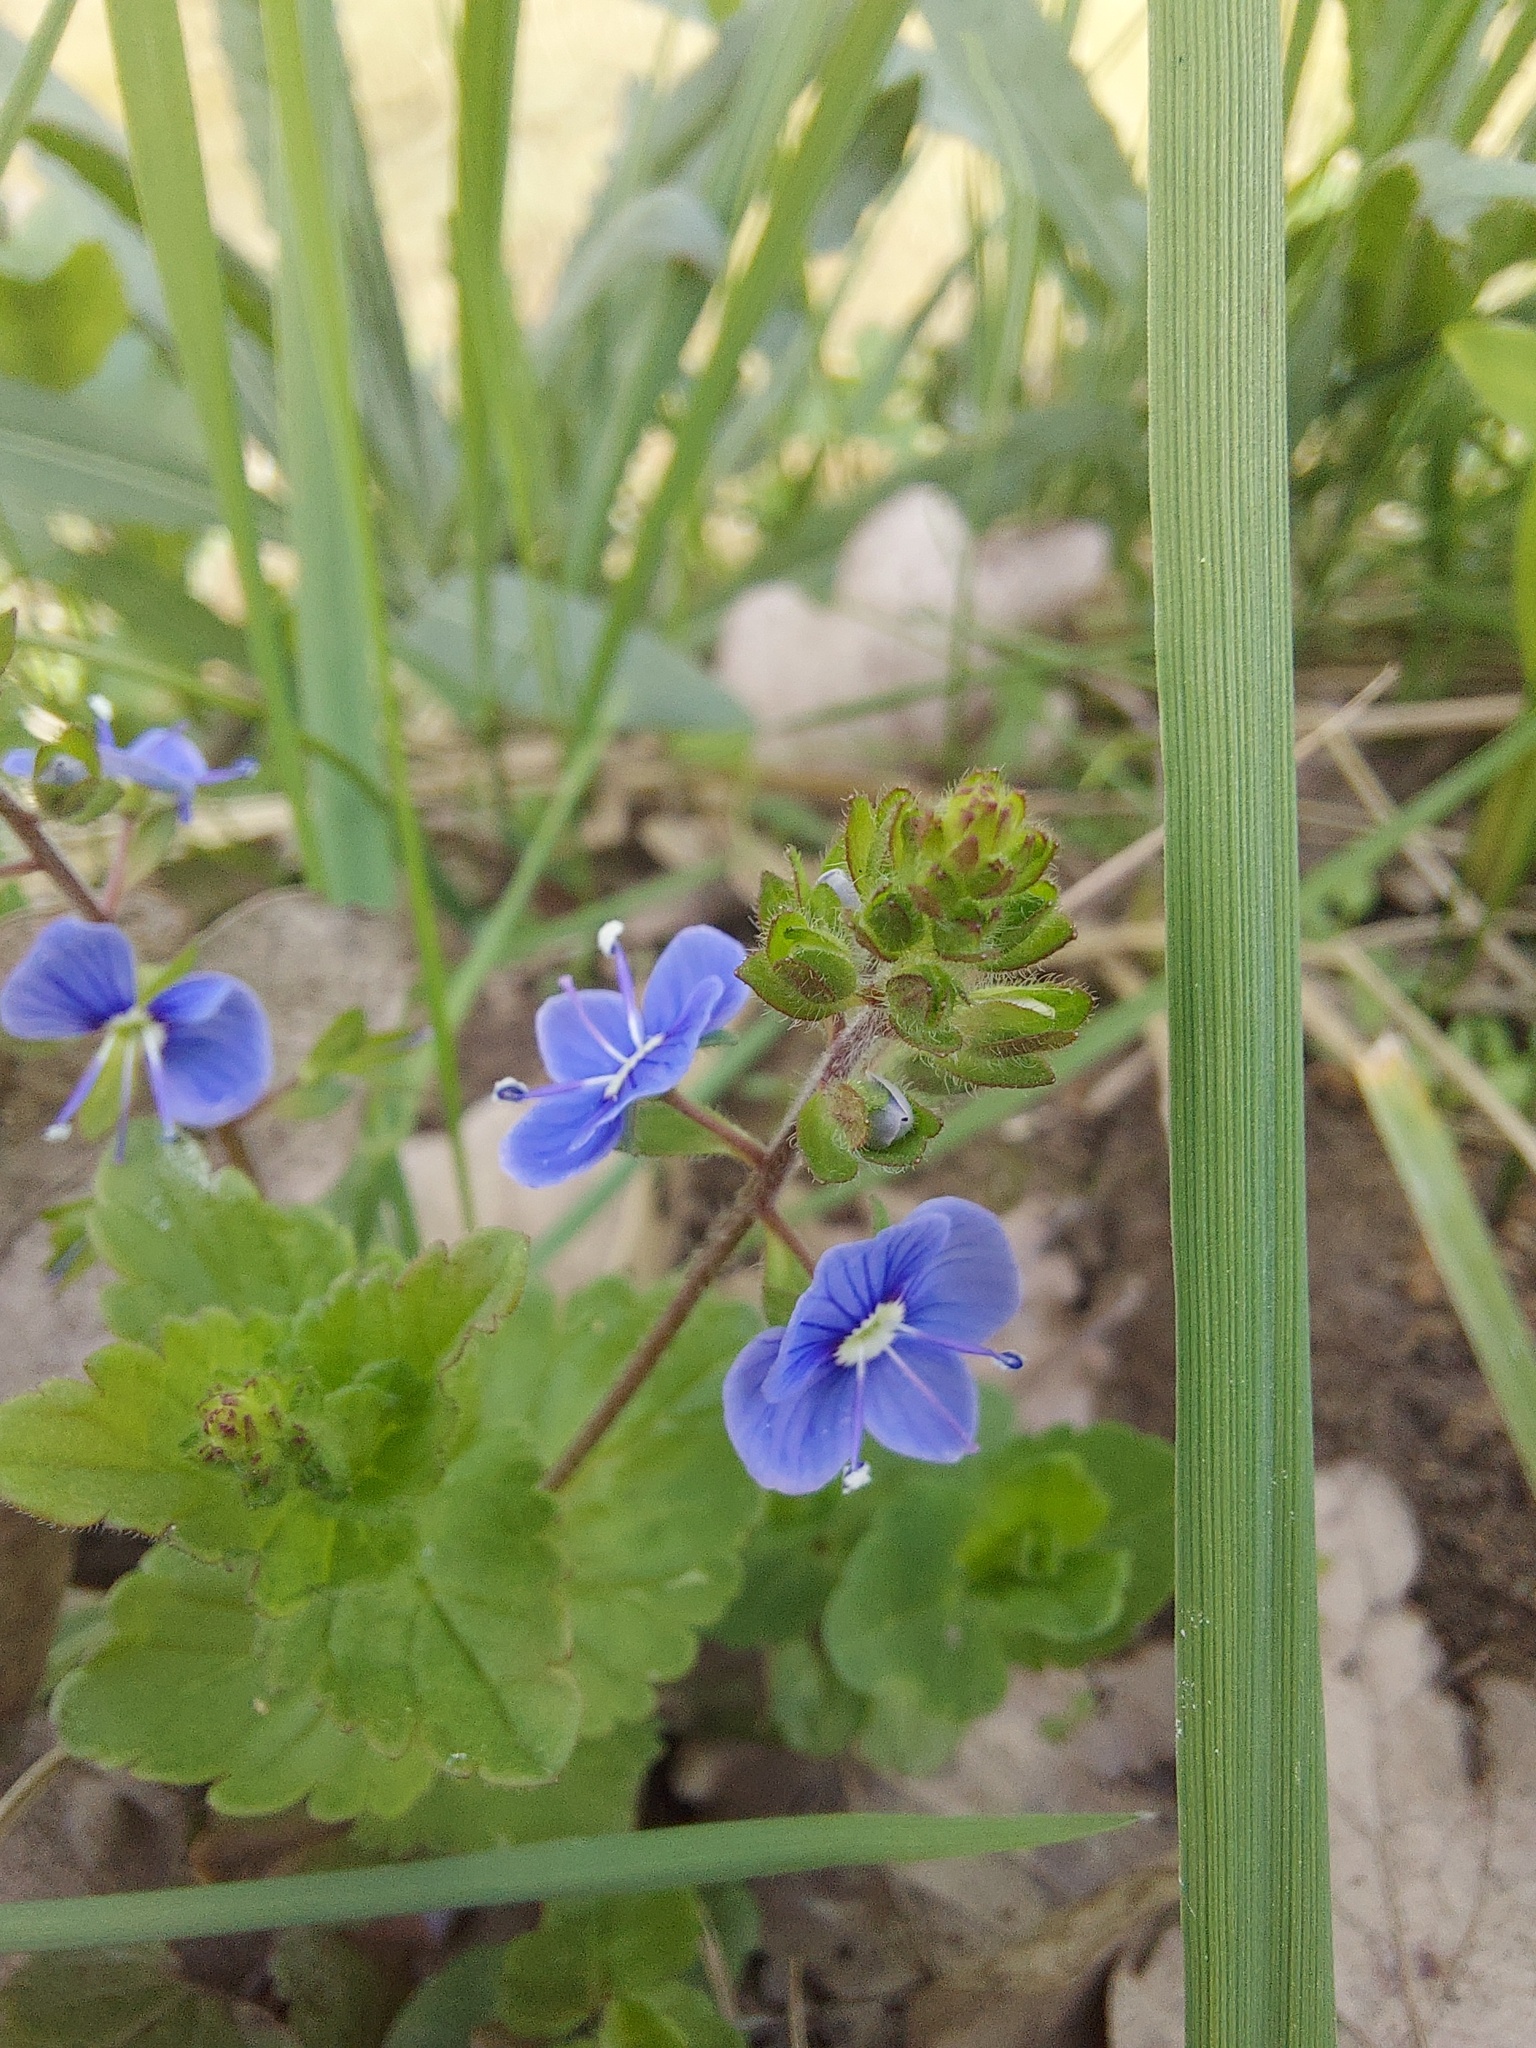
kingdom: Plantae
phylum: Tracheophyta
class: Magnoliopsida
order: Lamiales
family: Plantaginaceae
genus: Veronica
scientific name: Veronica chamaedrys
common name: Germander speedwell
